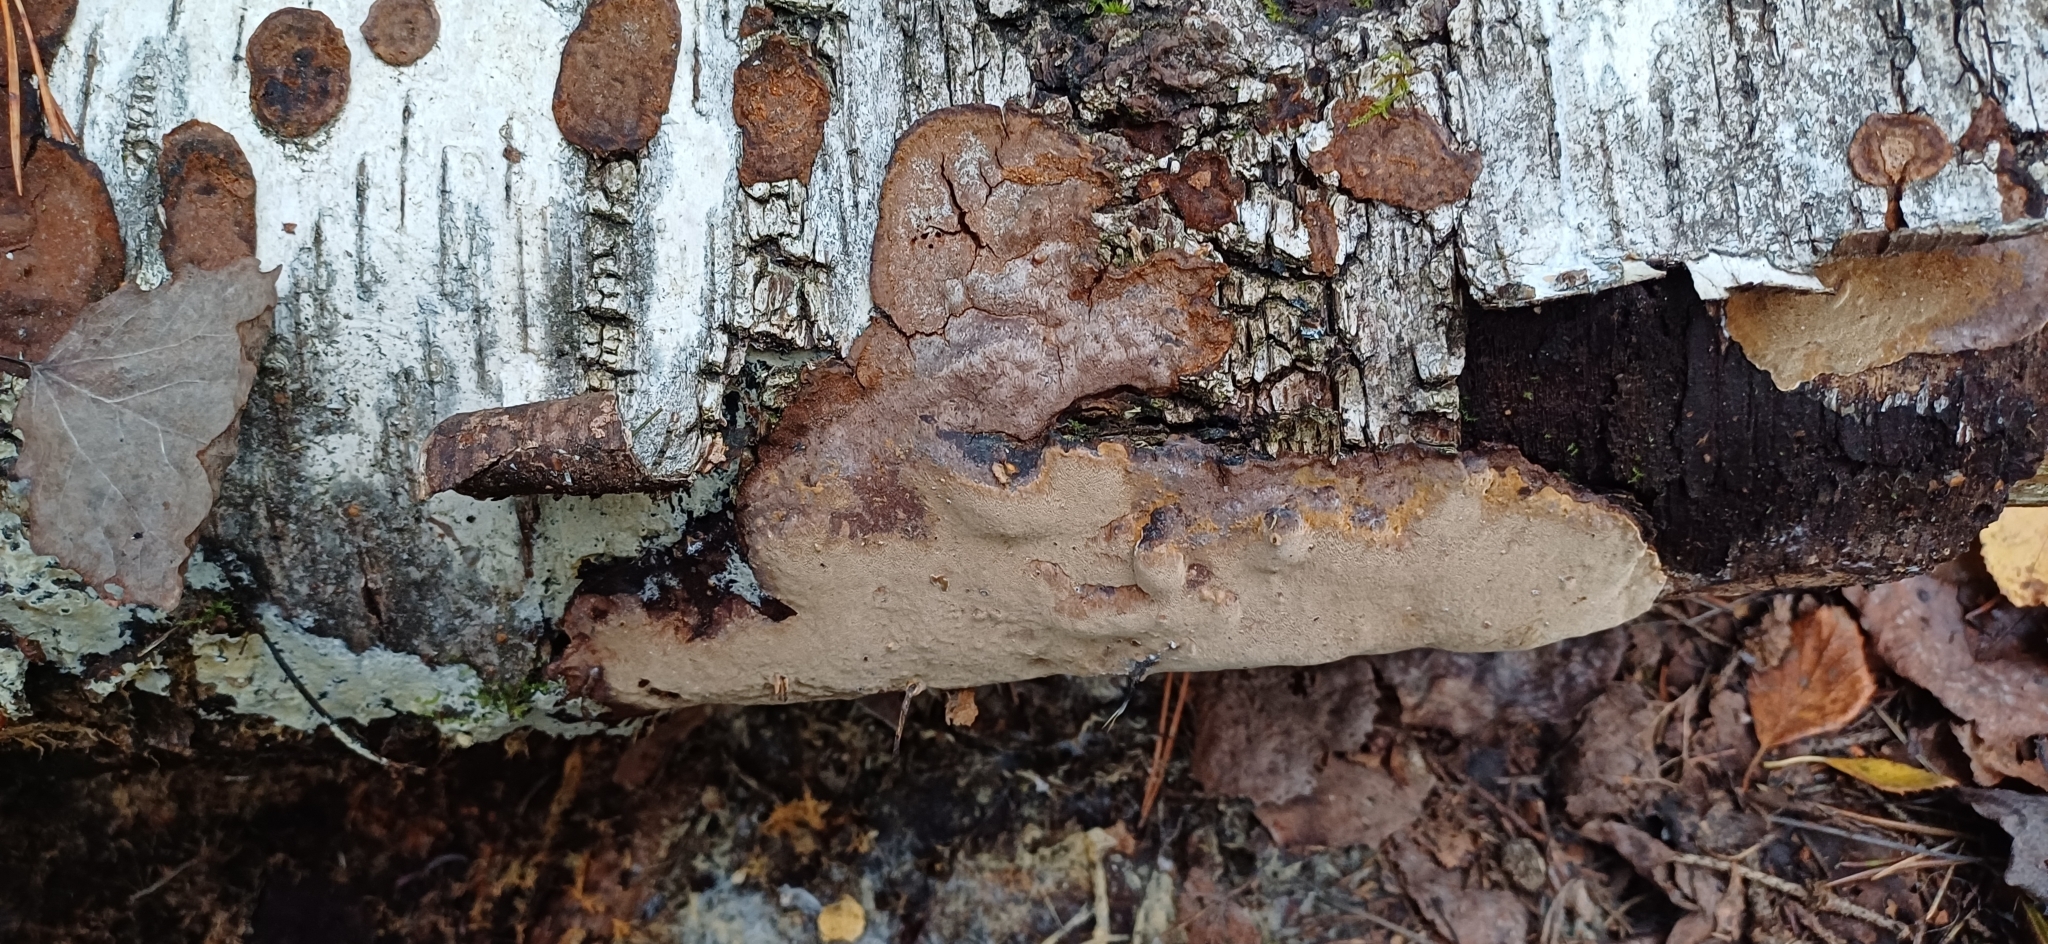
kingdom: Fungi
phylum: Basidiomycota
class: Agaricomycetes
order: Hymenochaetales
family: Hymenochaetaceae
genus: Phellinus
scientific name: Phellinus laevigatus
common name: Smooth bristle bracket
